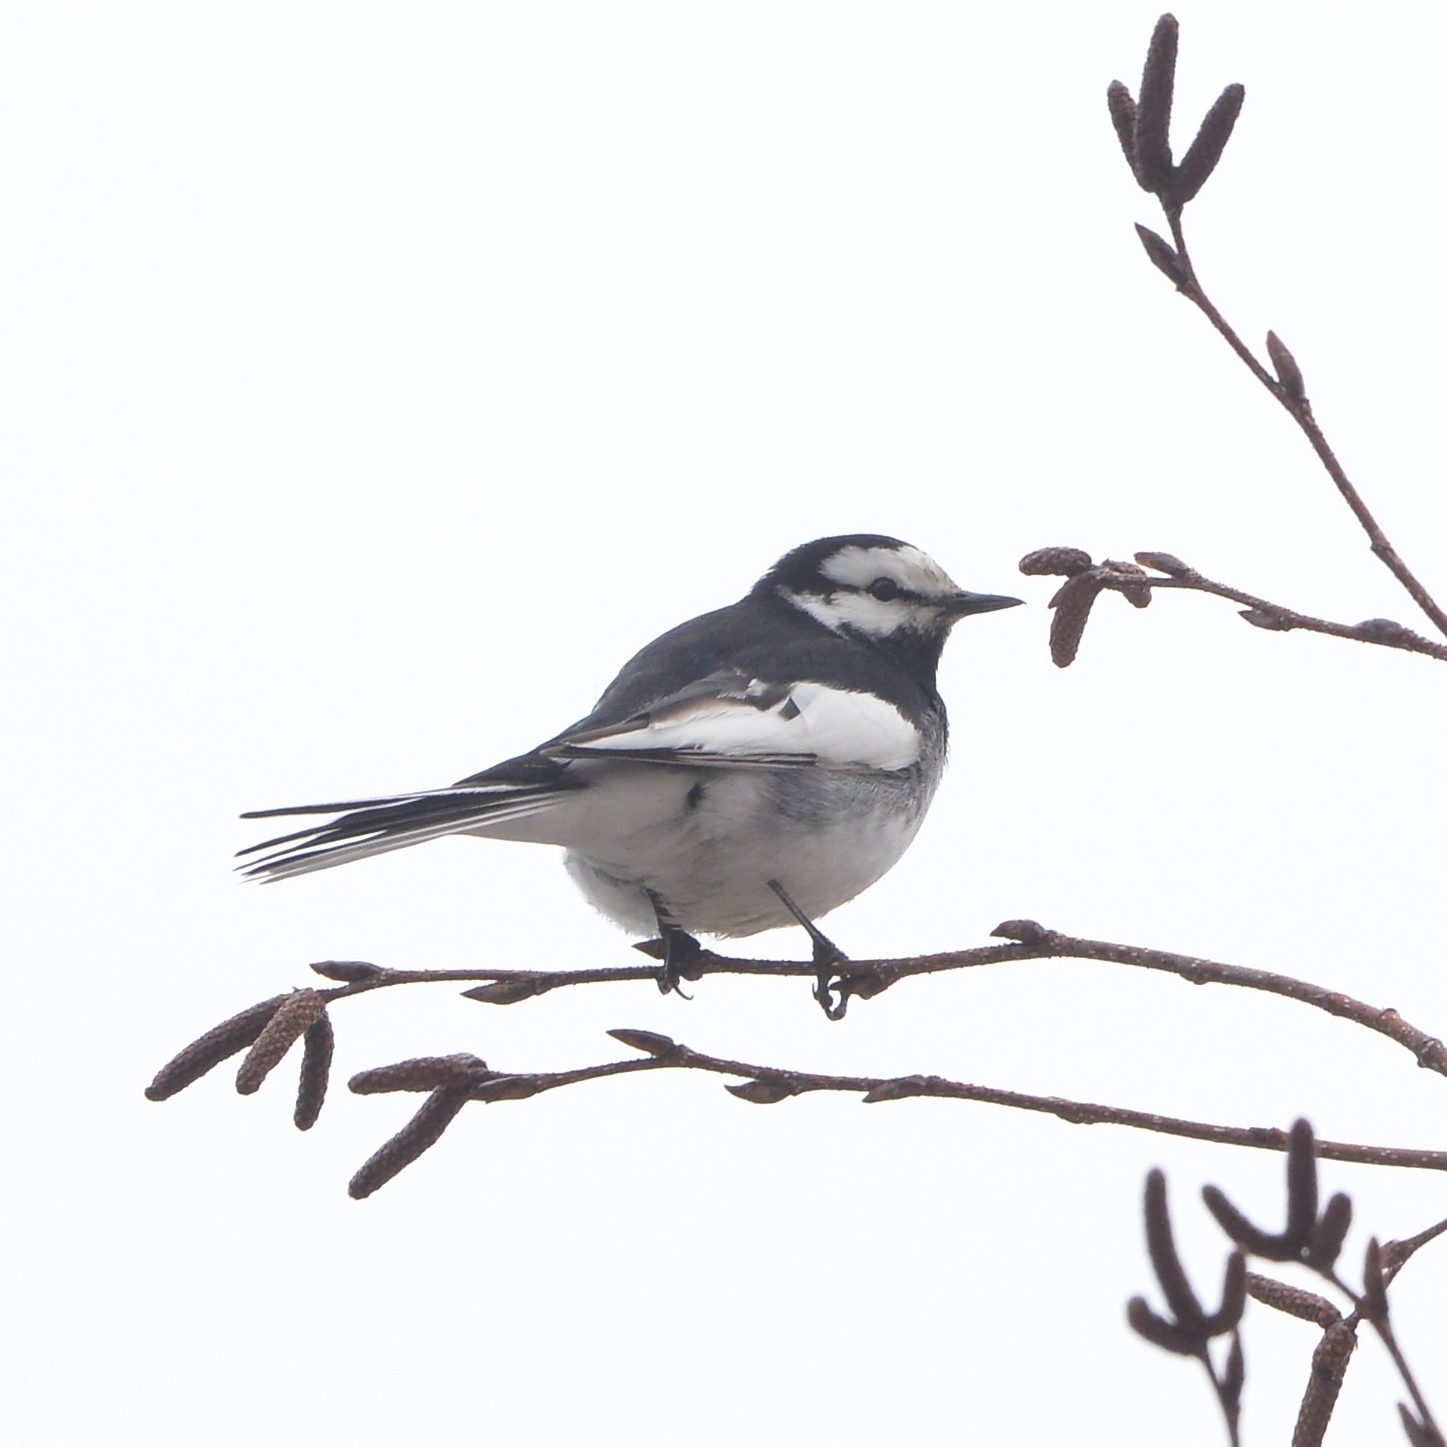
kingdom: Animalia
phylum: Chordata
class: Aves
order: Passeriformes
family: Motacillidae
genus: Motacilla
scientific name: Motacilla alba
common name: White wagtail
